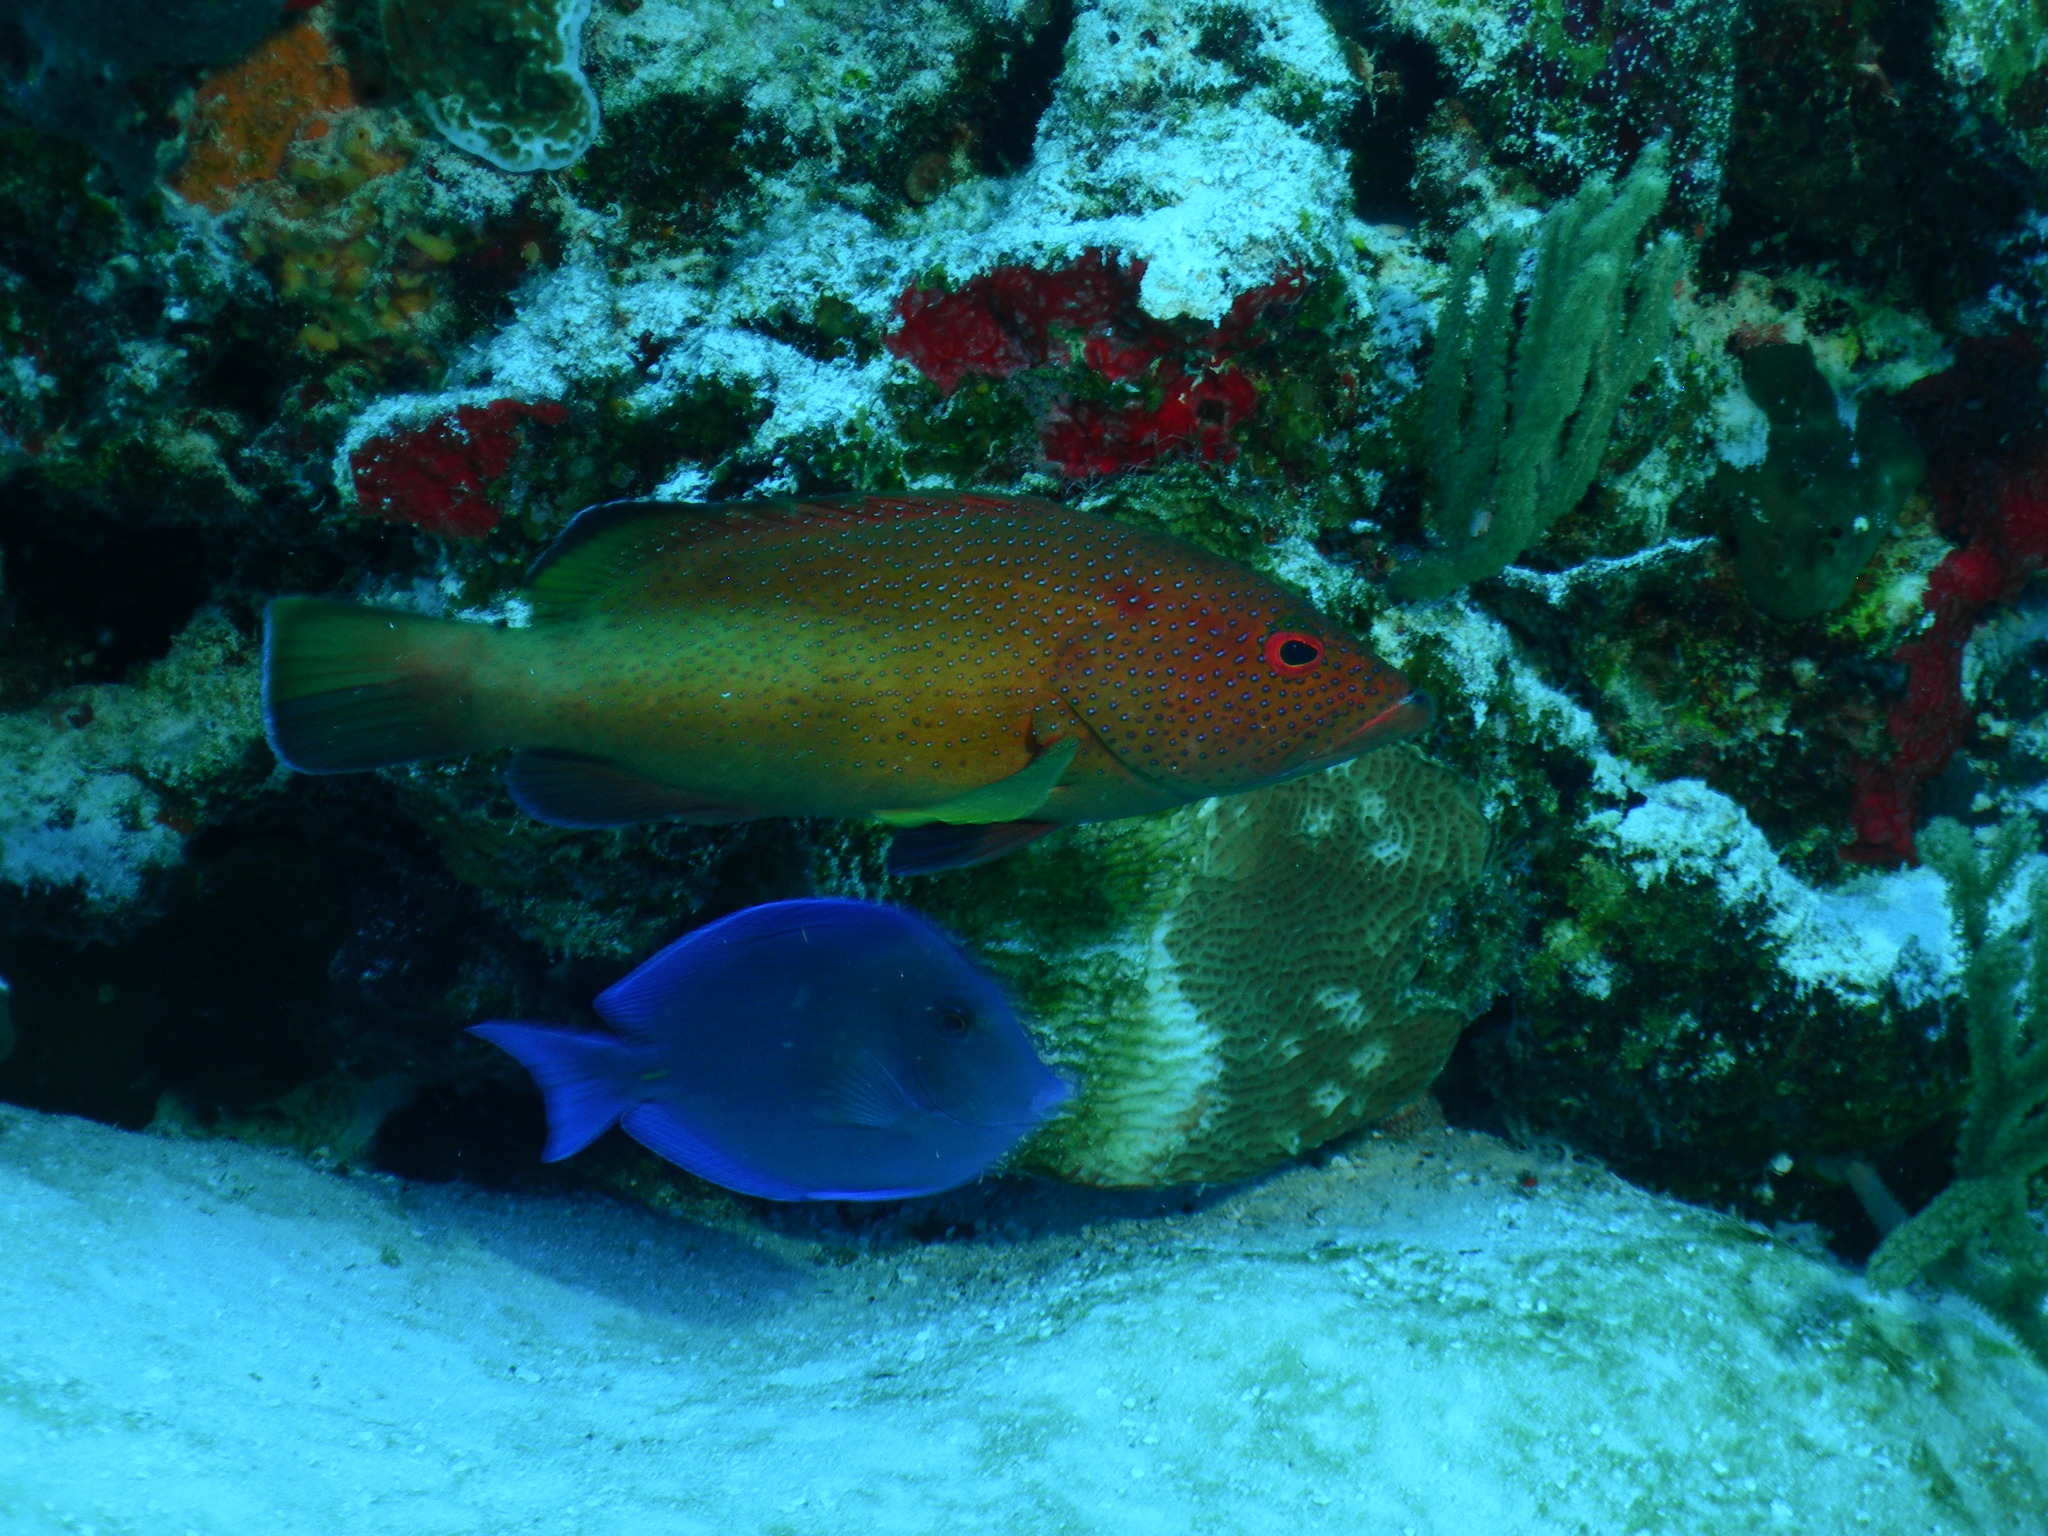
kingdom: Animalia
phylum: Chordata
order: Perciformes
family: Serranidae
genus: Cephalopholis
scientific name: Cephalopholis fulva
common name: Butterfish
